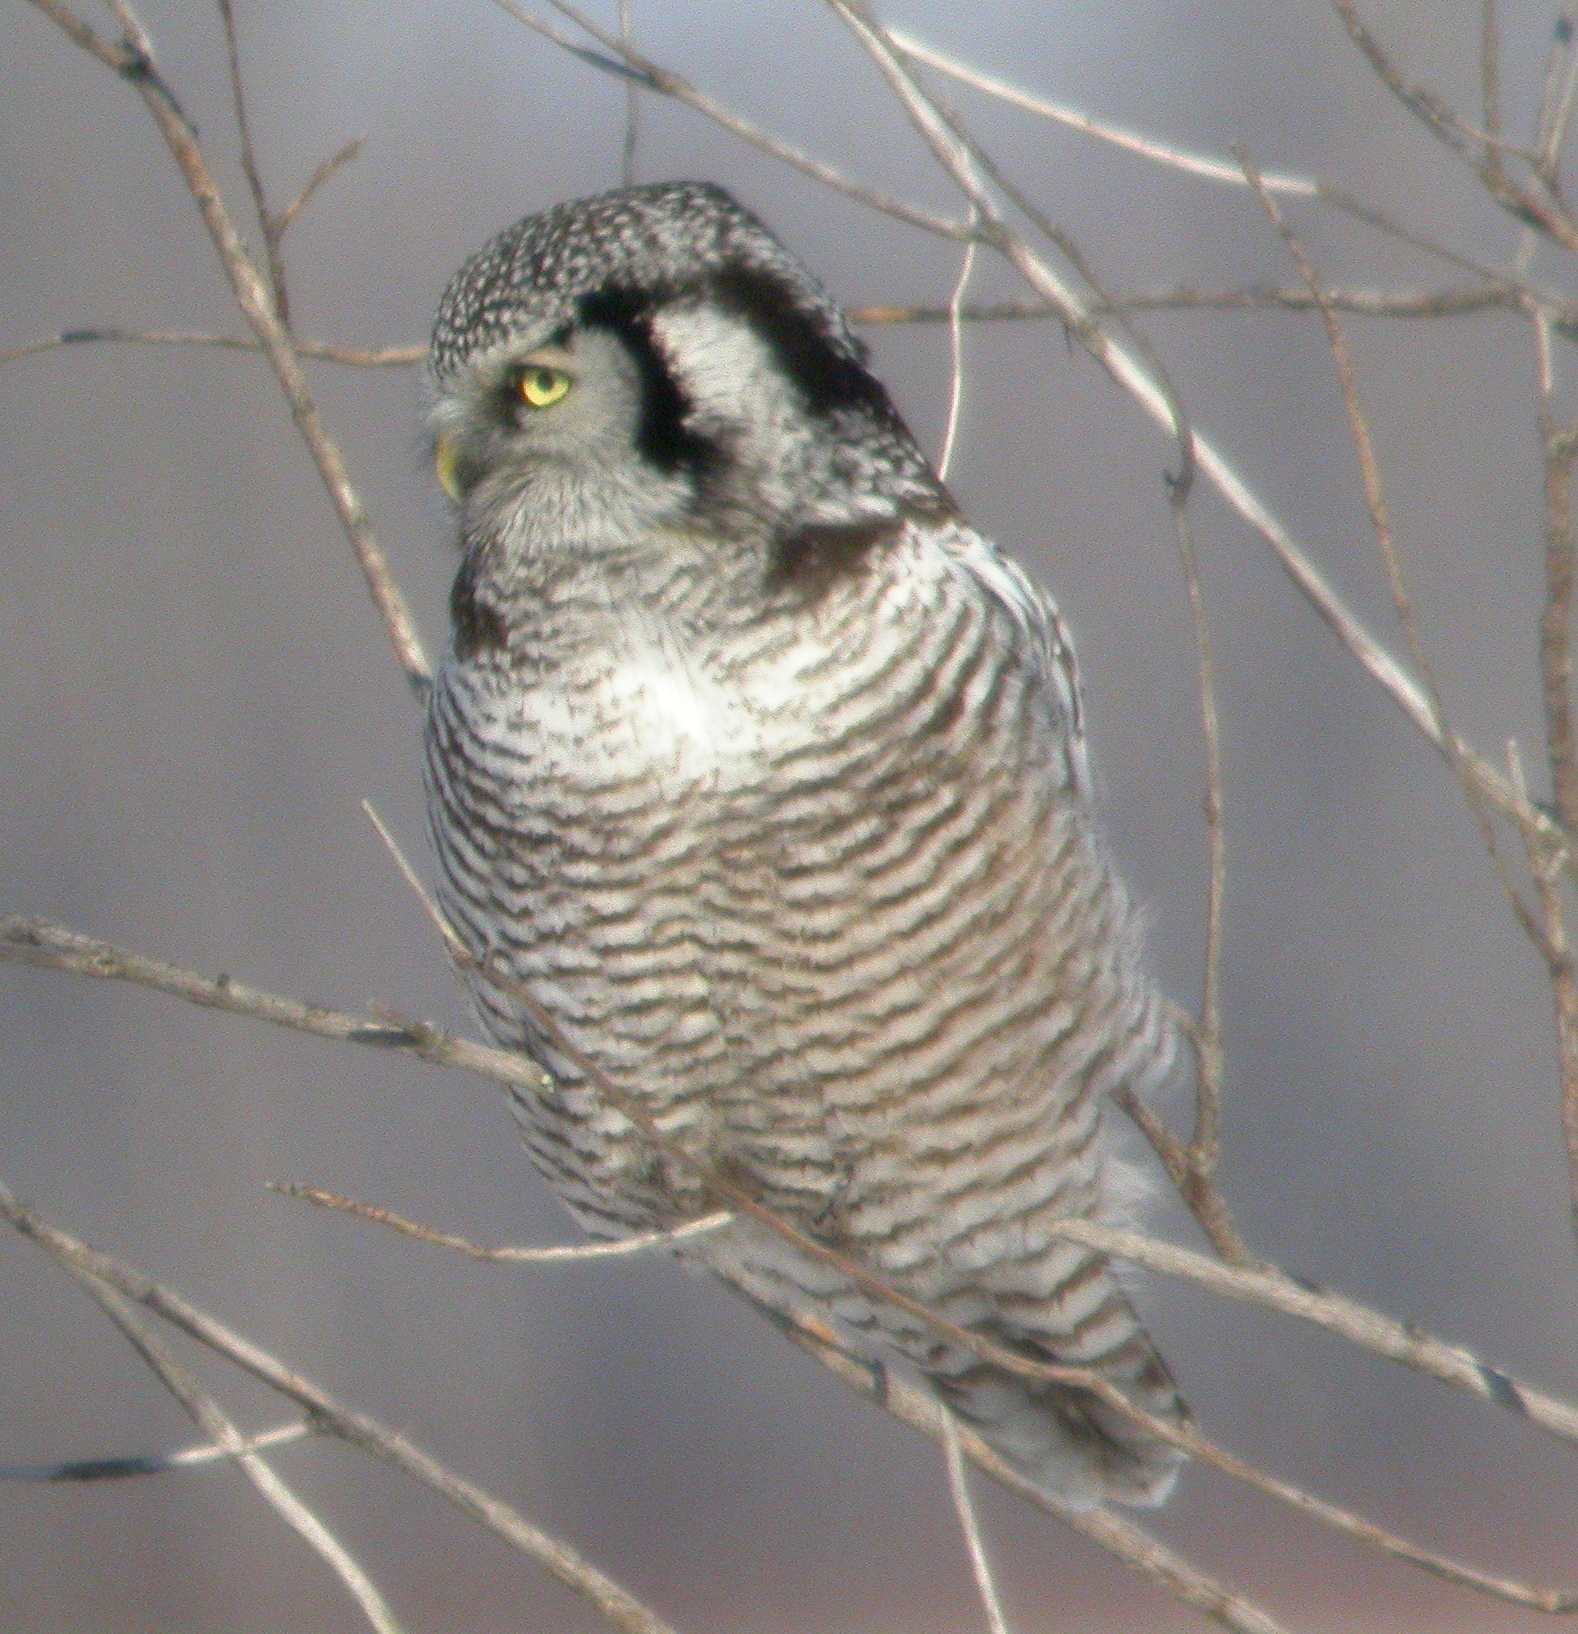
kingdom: Animalia
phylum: Chordata
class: Aves
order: Strigiformes
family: Strigidae
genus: Surnia
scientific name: Surnia ulula
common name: Northern hawk-owl
